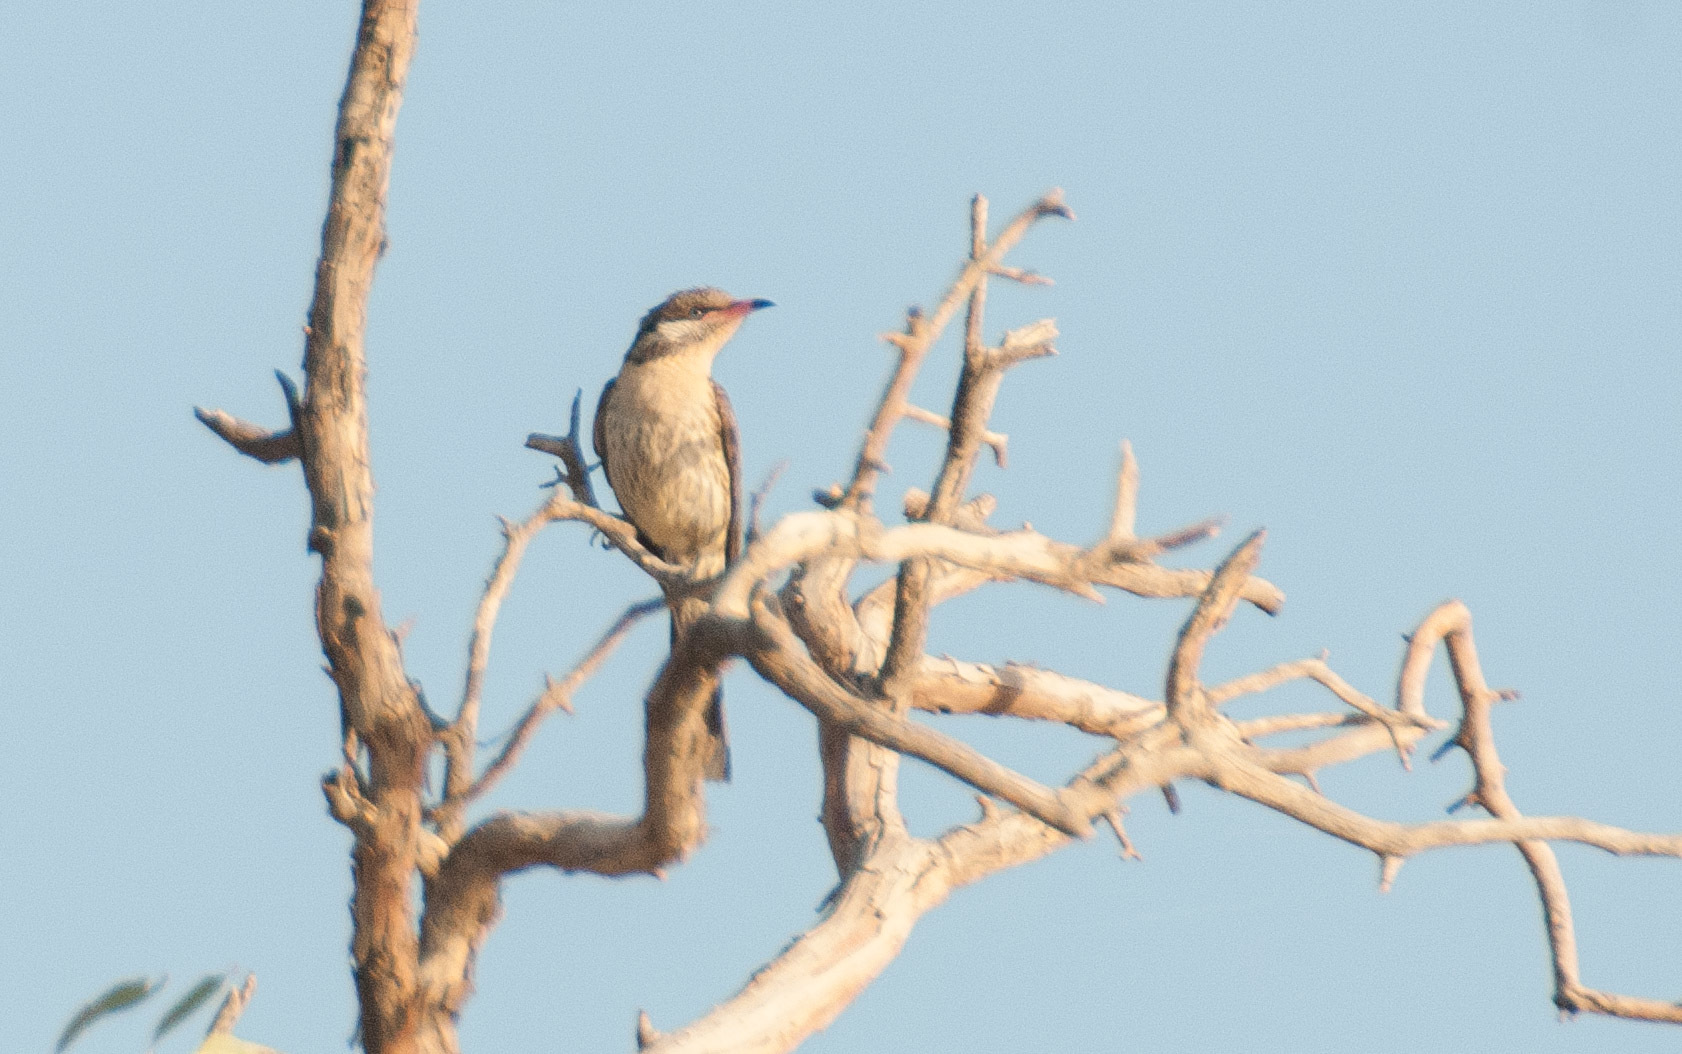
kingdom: Animalia
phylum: Chordata
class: Aves
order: Passeriformes
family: Meliphagidae
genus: Acanthagenys
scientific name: Acanthagenys rufogularis
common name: Spiny-cheeked honeyeater
